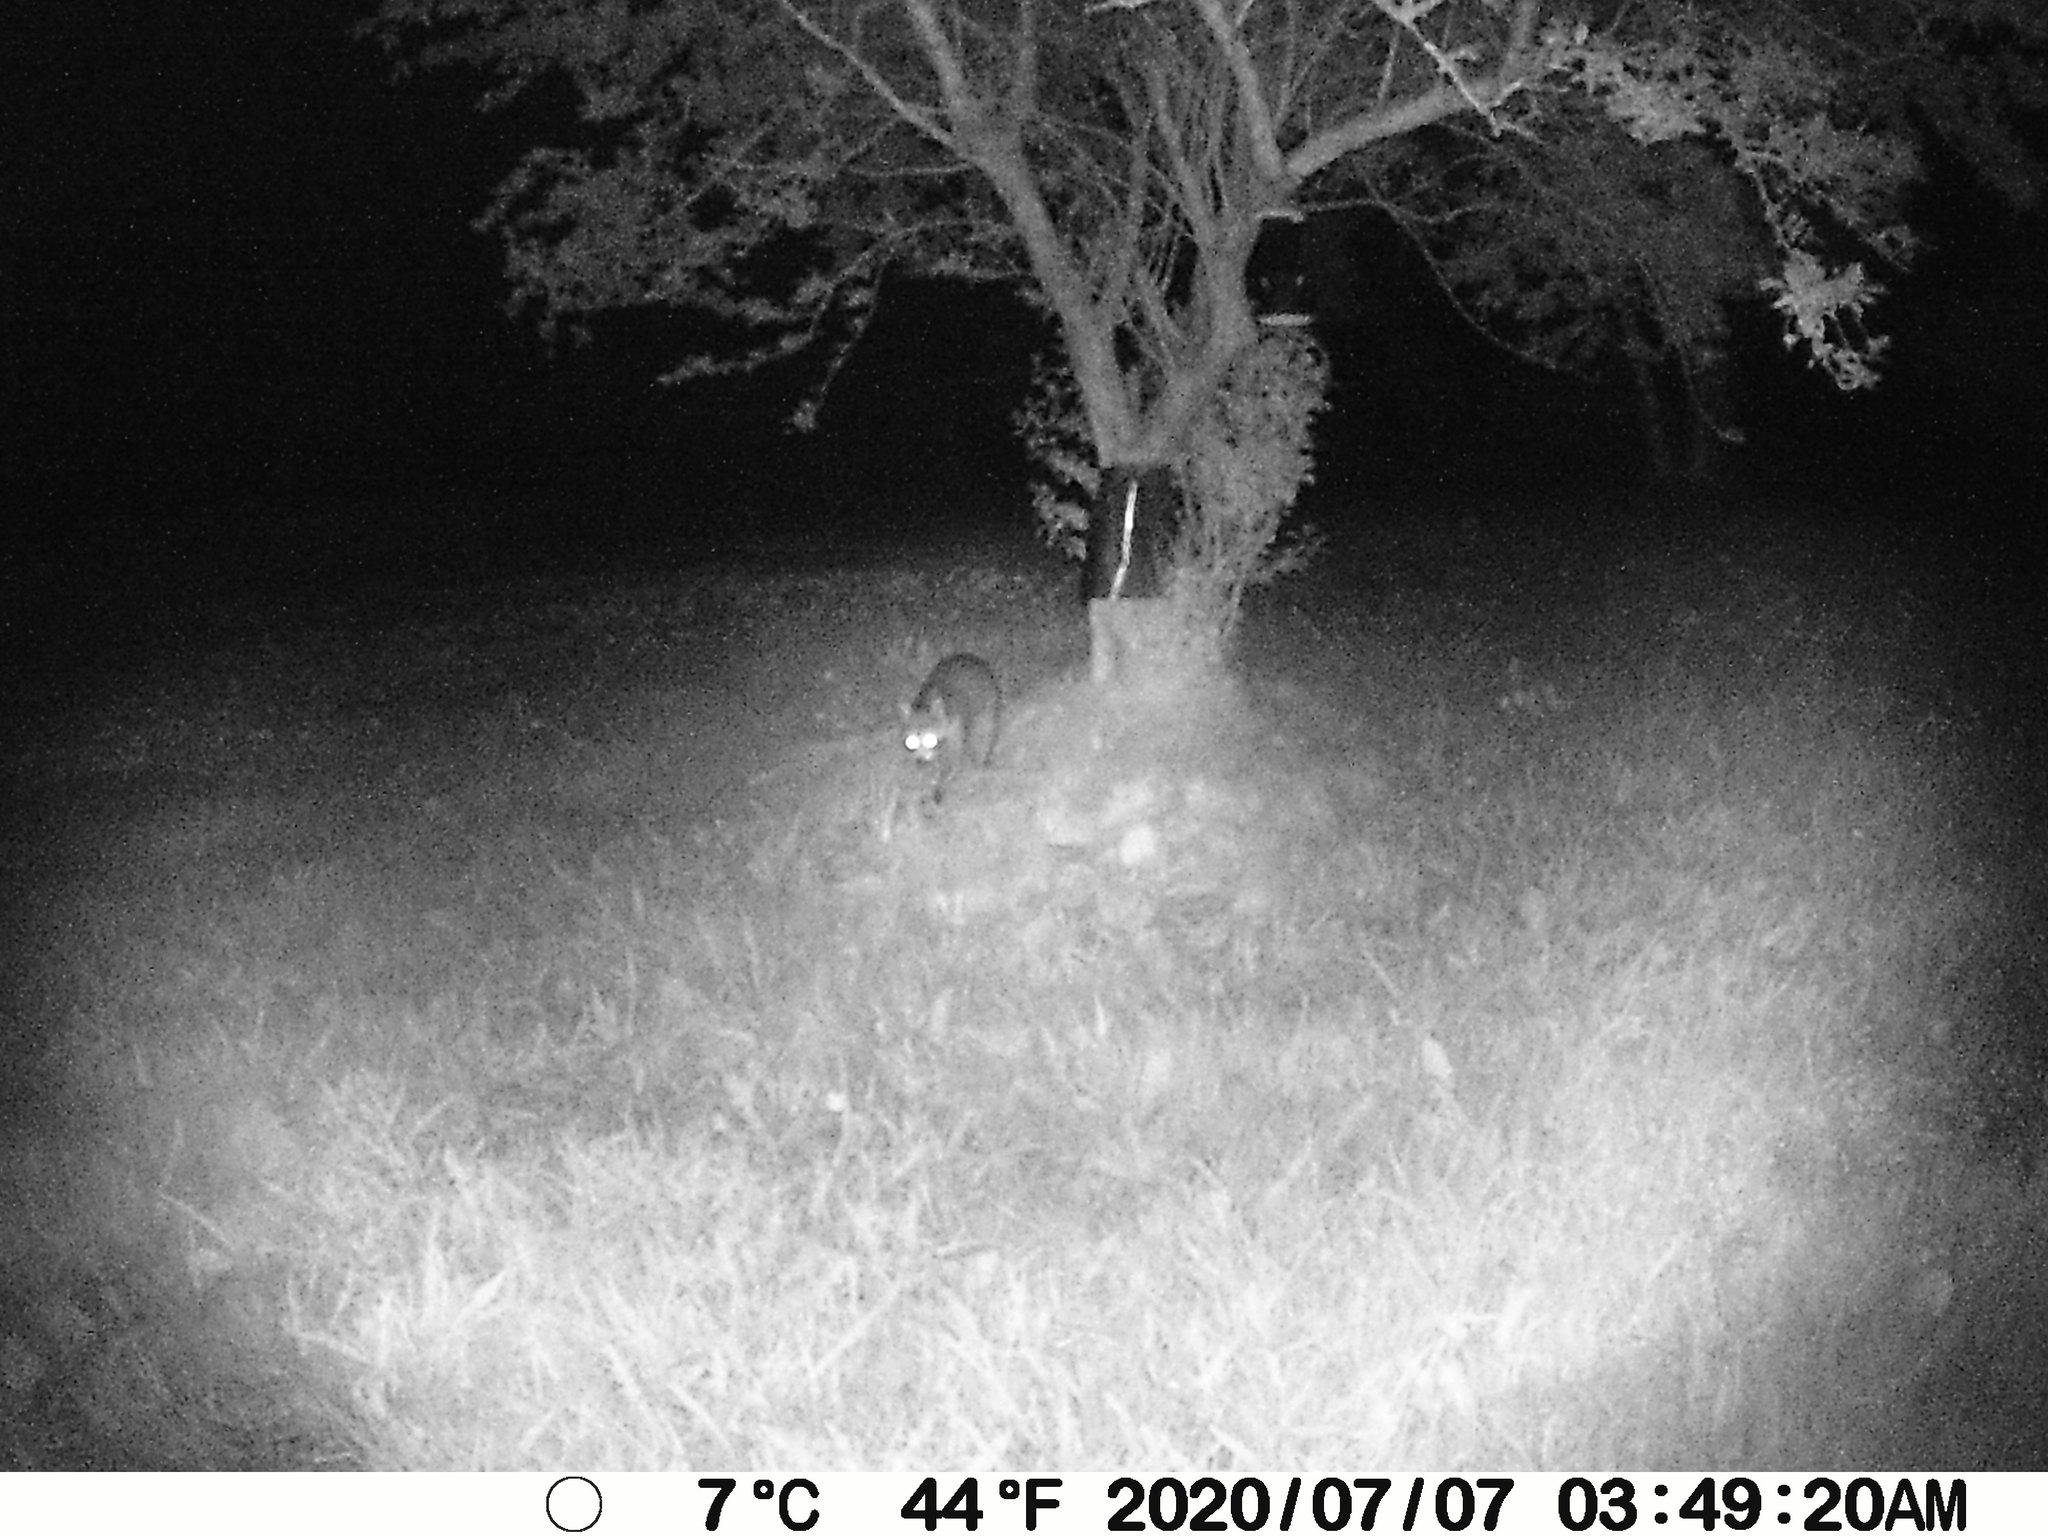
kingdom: Animalia
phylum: Chordata
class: Mammalia
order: Carnivora
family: Procyonidae
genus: Procyon
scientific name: Procyon lotor
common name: Raccoon
